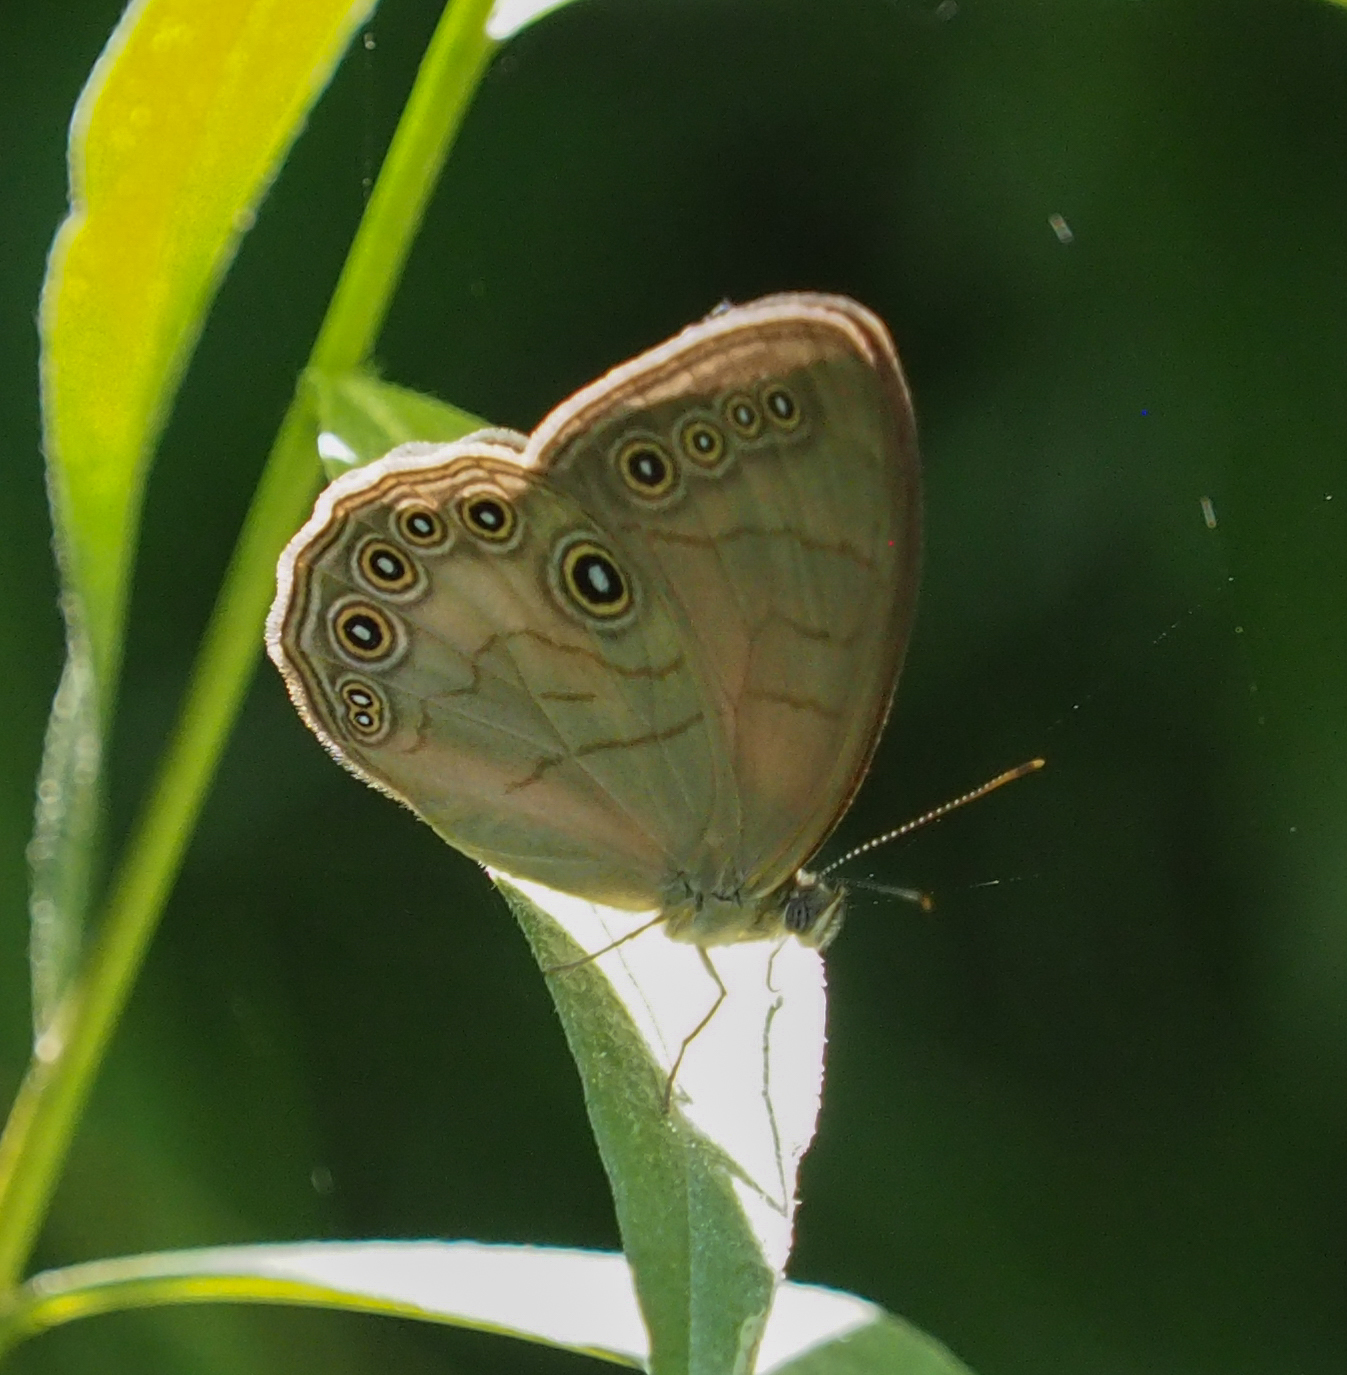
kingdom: Animalia
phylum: Arthropoda
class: Insecta
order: Lepidoptera
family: Nymphalidae
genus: Lethe
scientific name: Lethe eurydice
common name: Eyed brown
